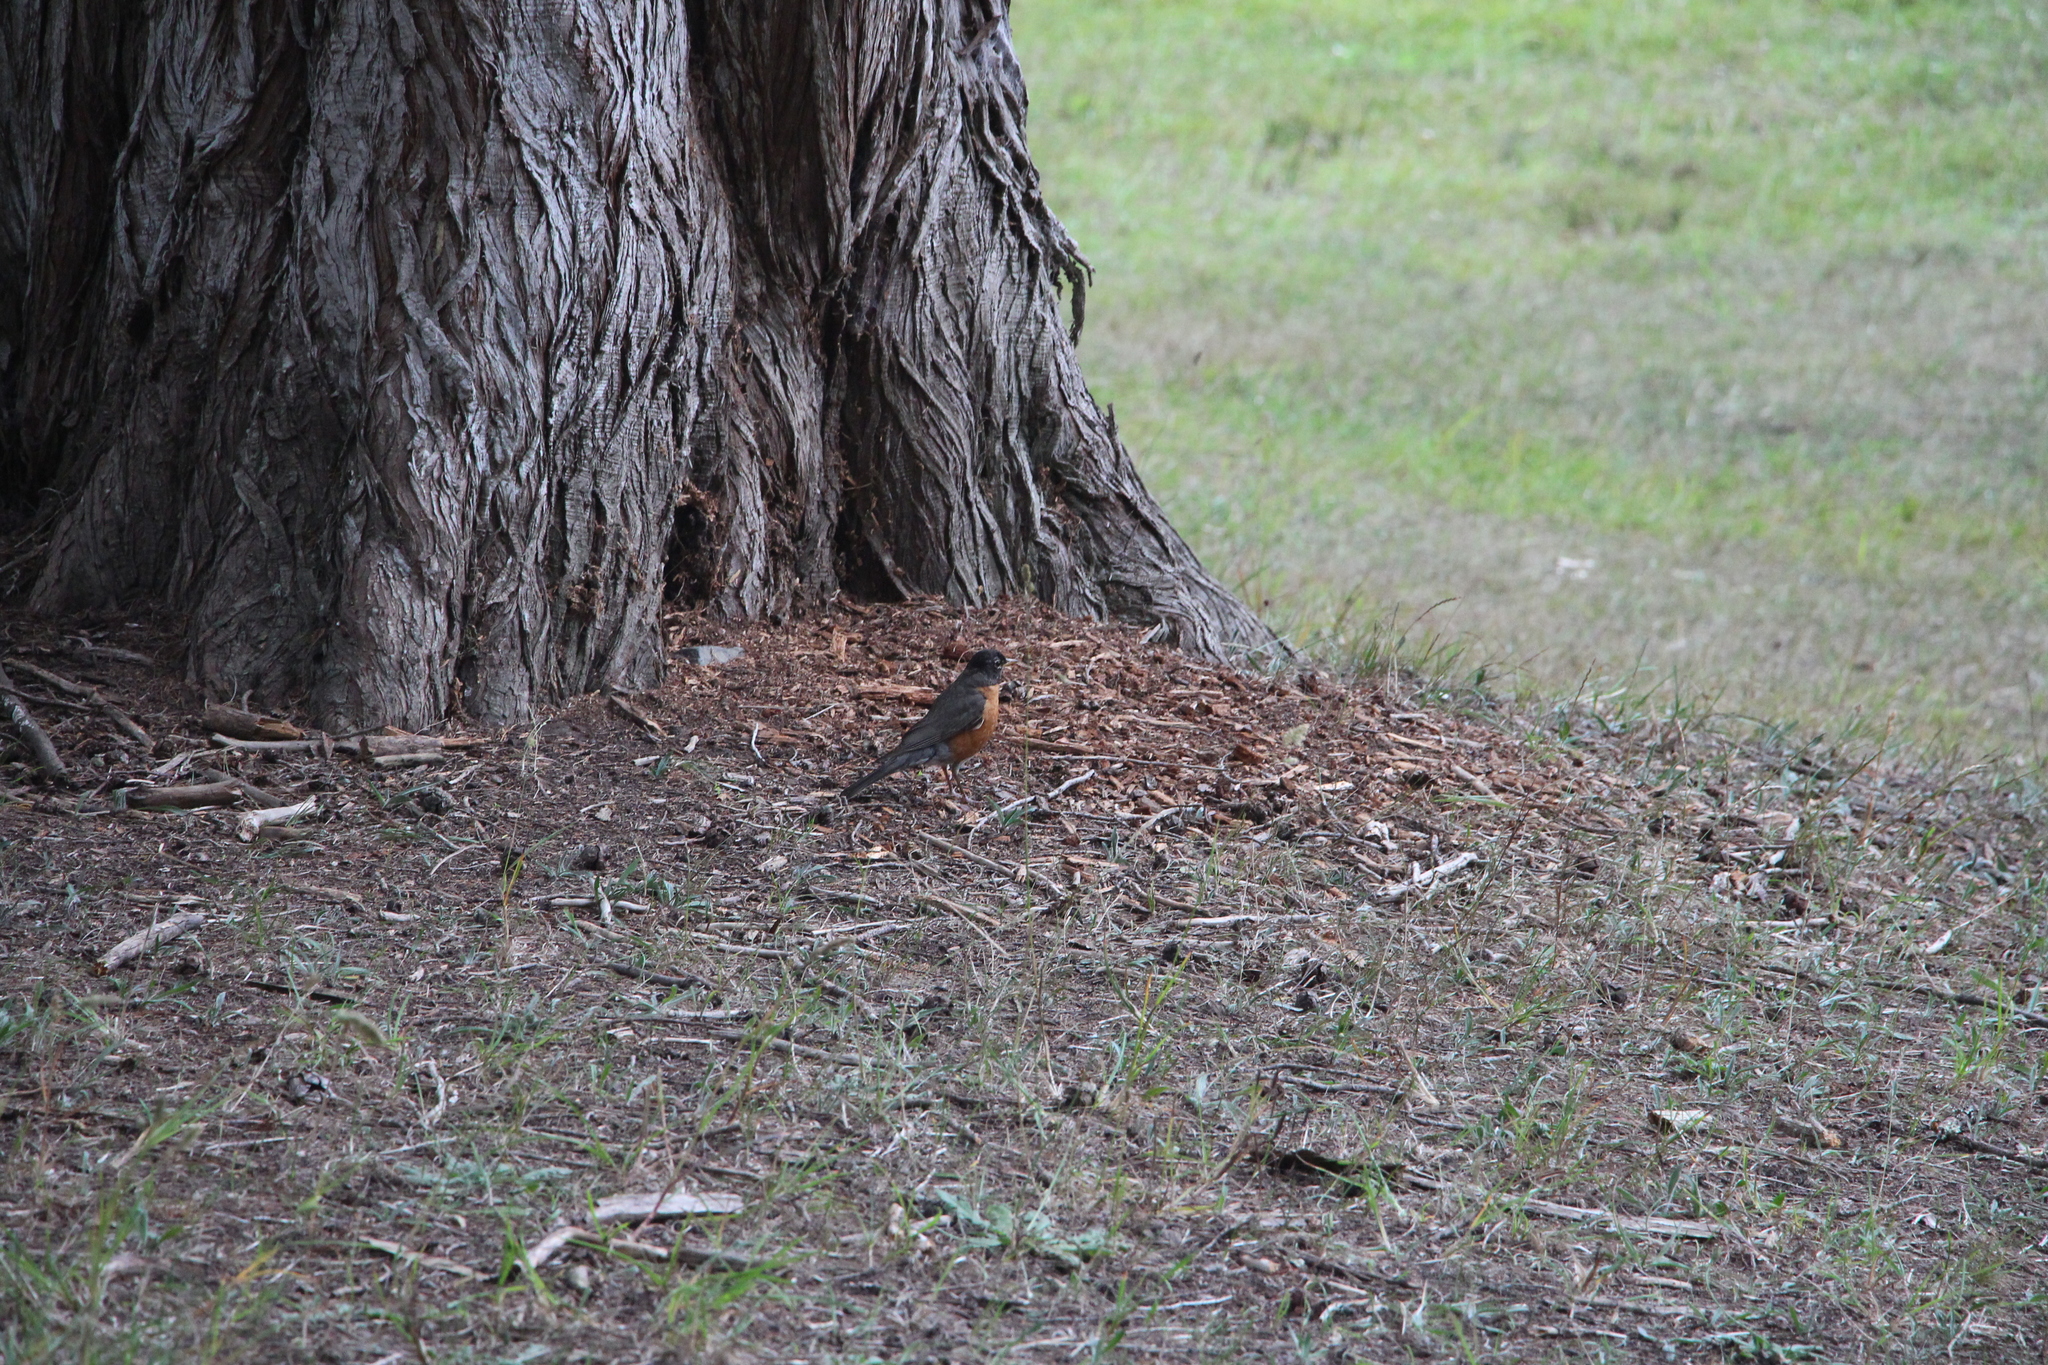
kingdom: Animalia
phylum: Chordata
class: Aves
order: Passeriformes
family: Turdidae
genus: Turdus
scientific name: Turdus migratorius
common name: American robin
